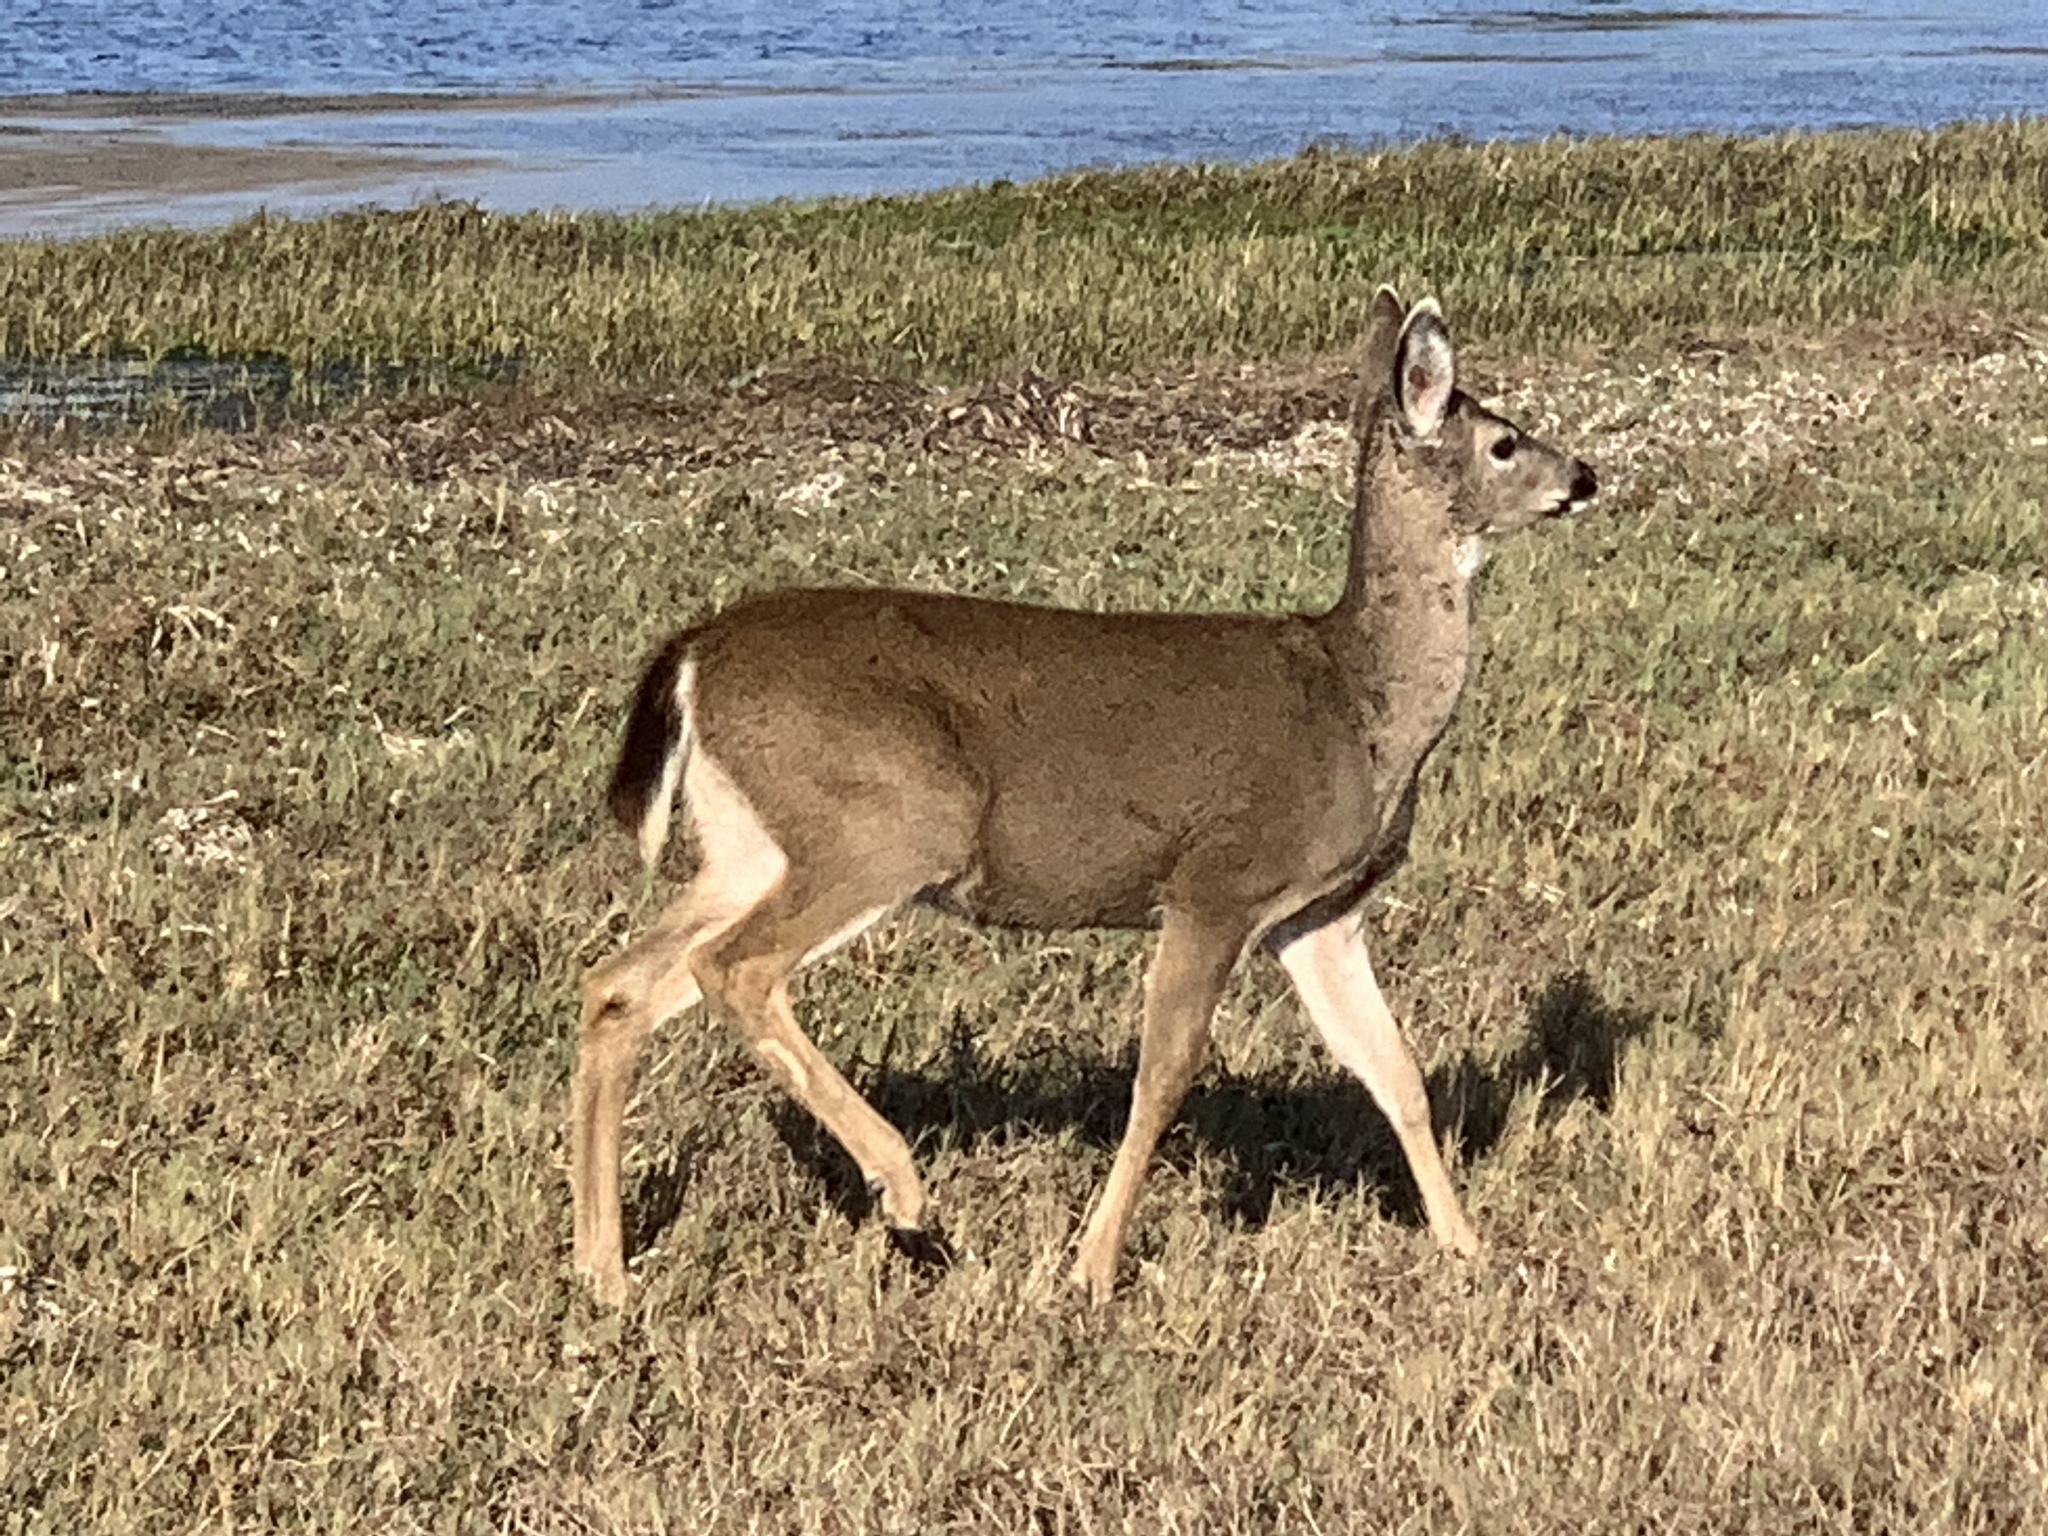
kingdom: Animalia
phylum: Chordata
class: Mammalia
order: Artiodactyla
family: Cervidae
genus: Odocoileus
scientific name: Odocoileus hemionus
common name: Mule deer
